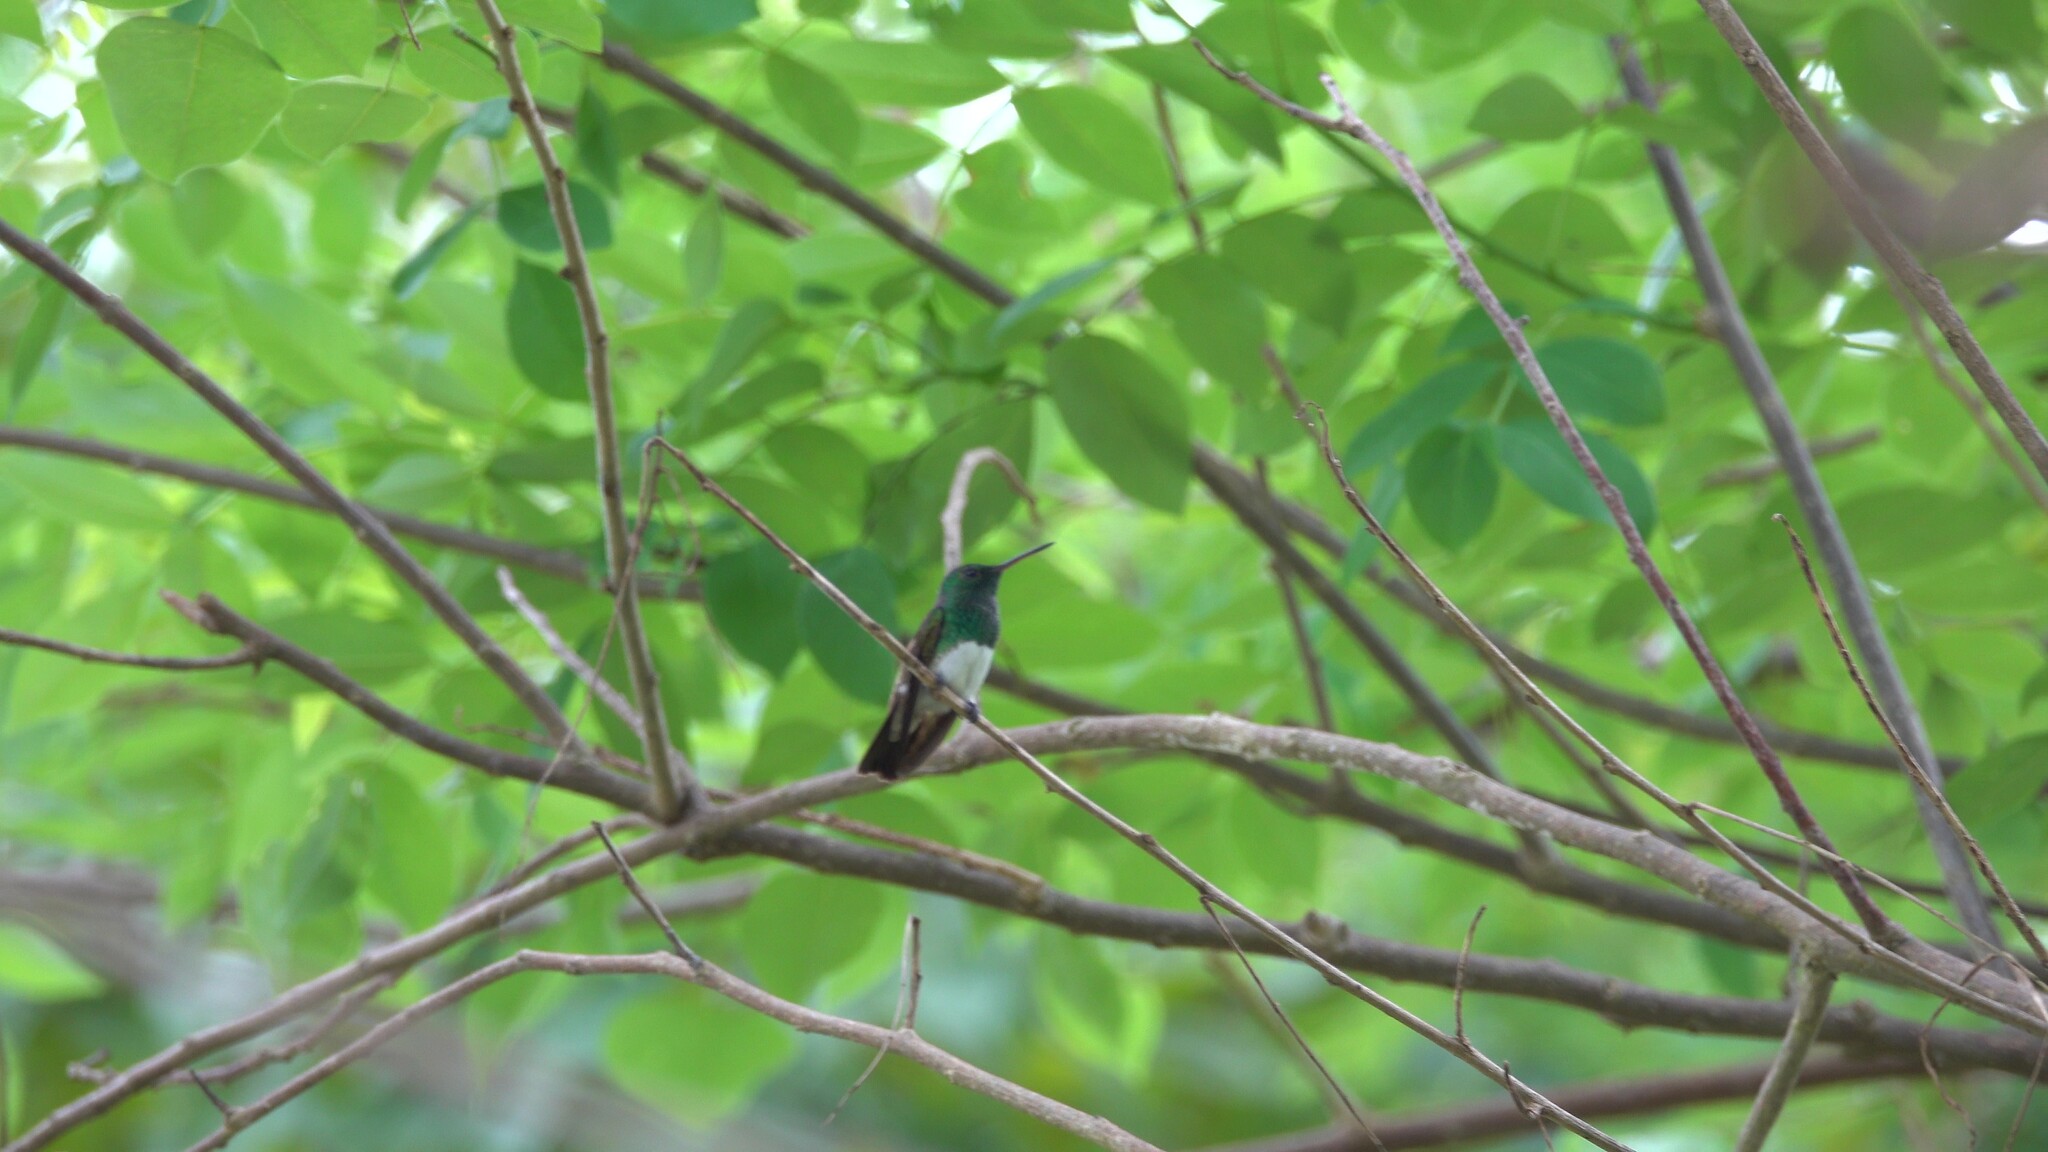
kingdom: Animalia
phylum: Chordata
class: Aves
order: Apodiformes
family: Trochilidae
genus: Saucerottia
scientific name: Saucerottia edward
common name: Snowy-bellied hummingbird
